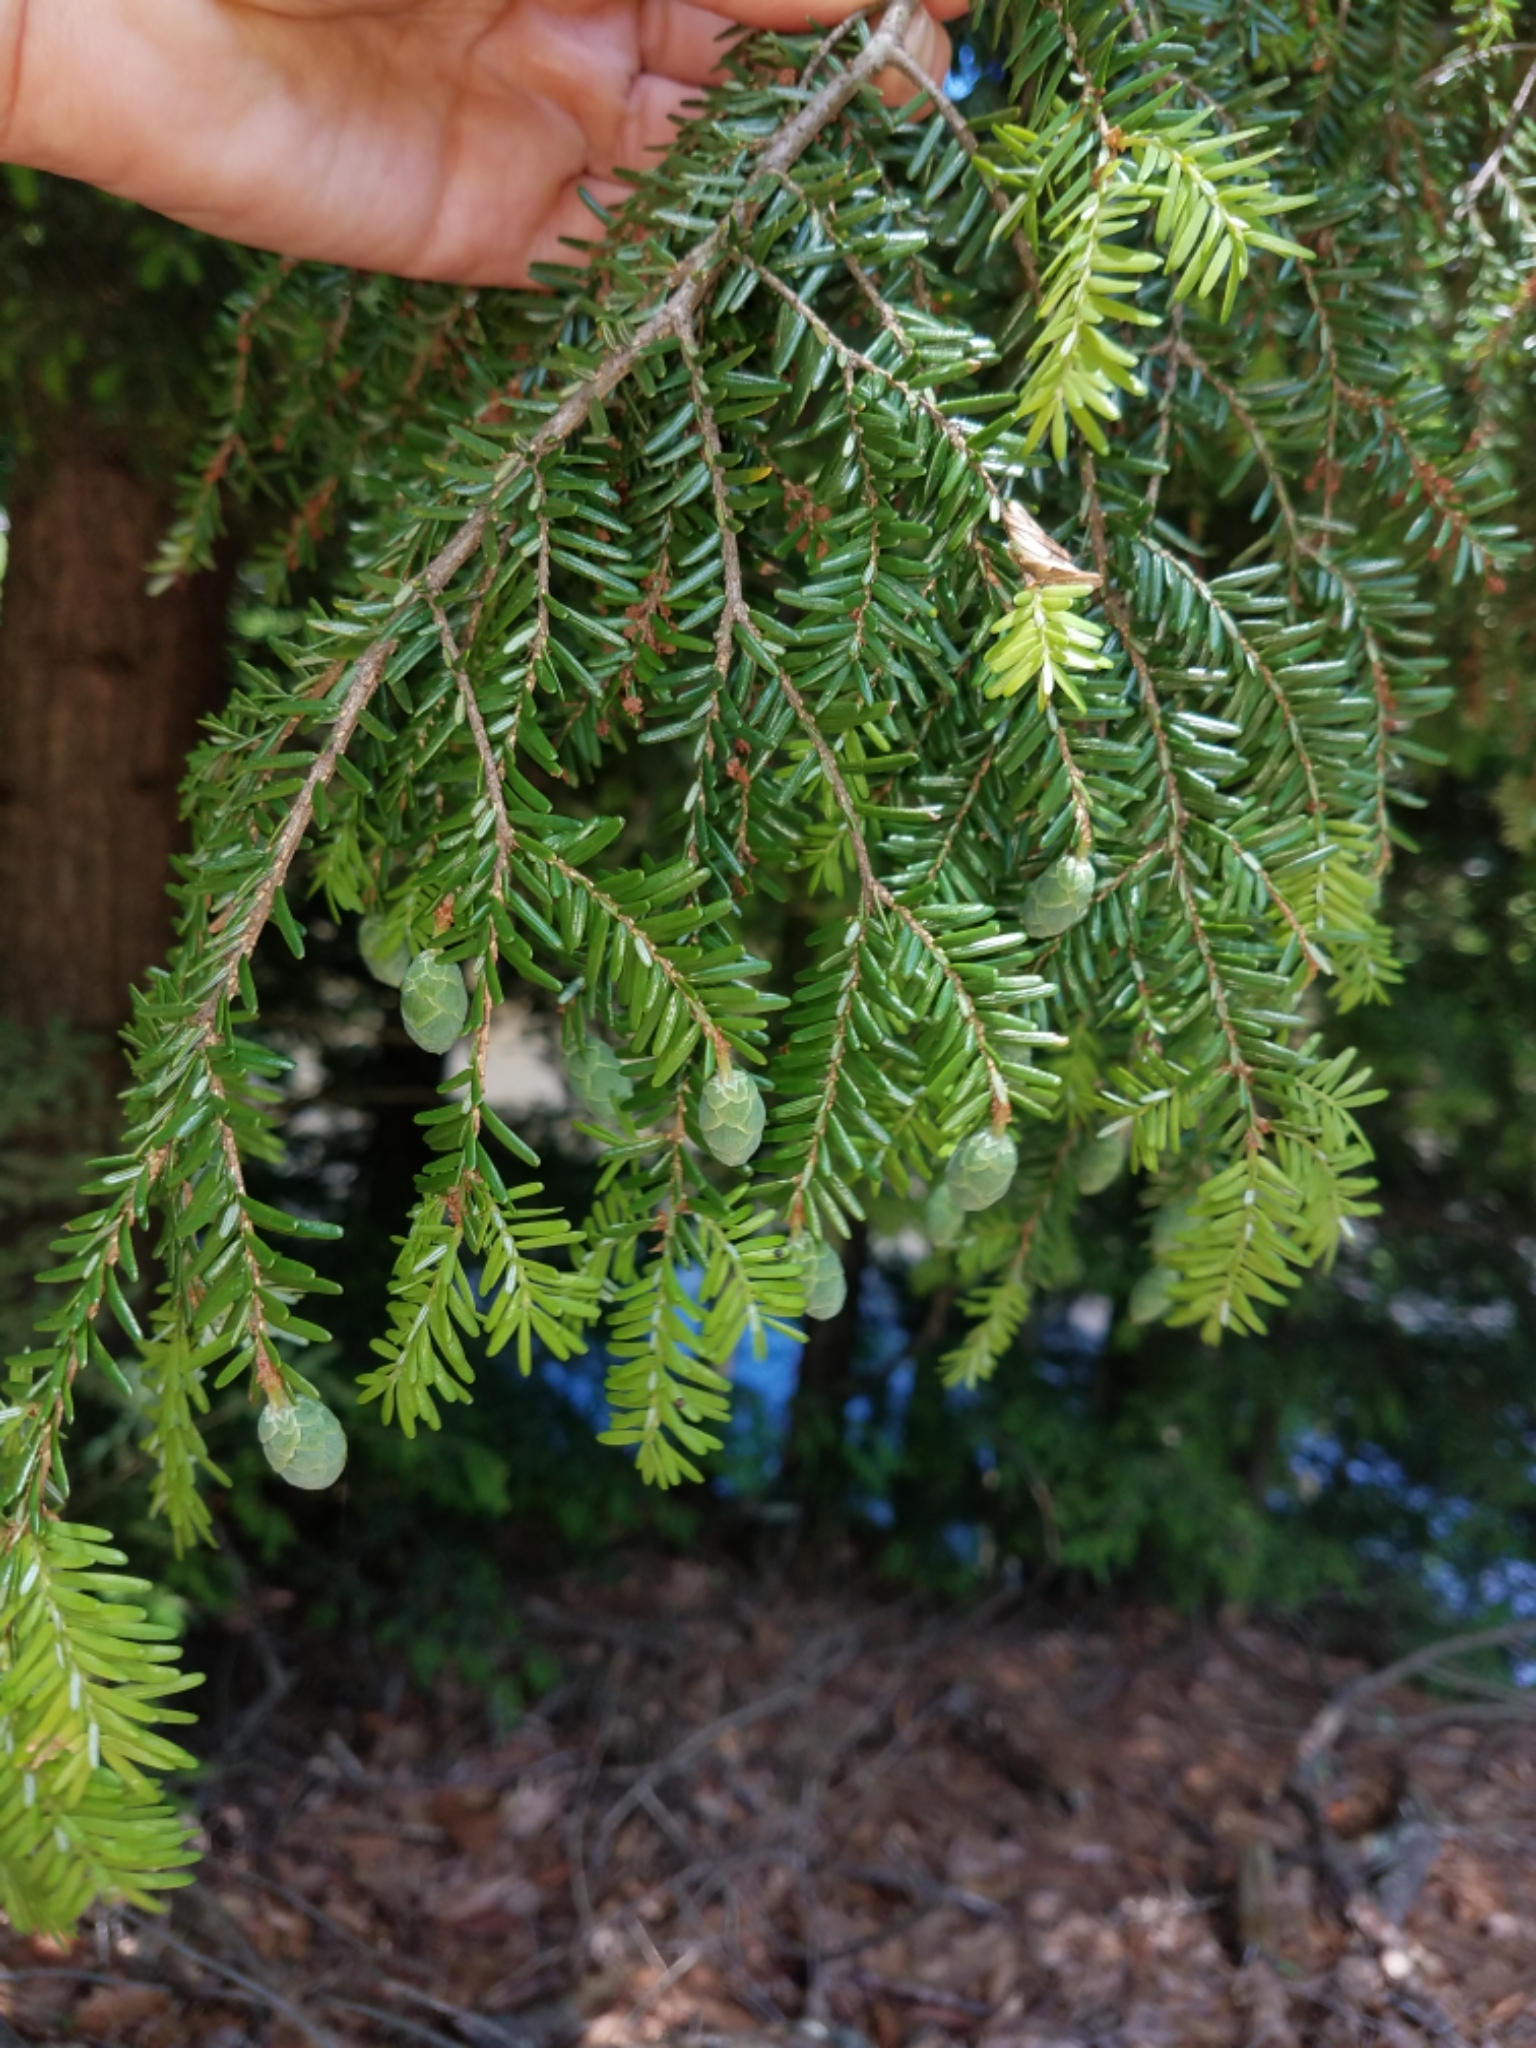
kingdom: Plantae
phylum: Tracheophyta
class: Pinopsida
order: Pinales
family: Pinaceae
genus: Tsuga
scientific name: Tsuga canadensis
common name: Eastern hemlock
